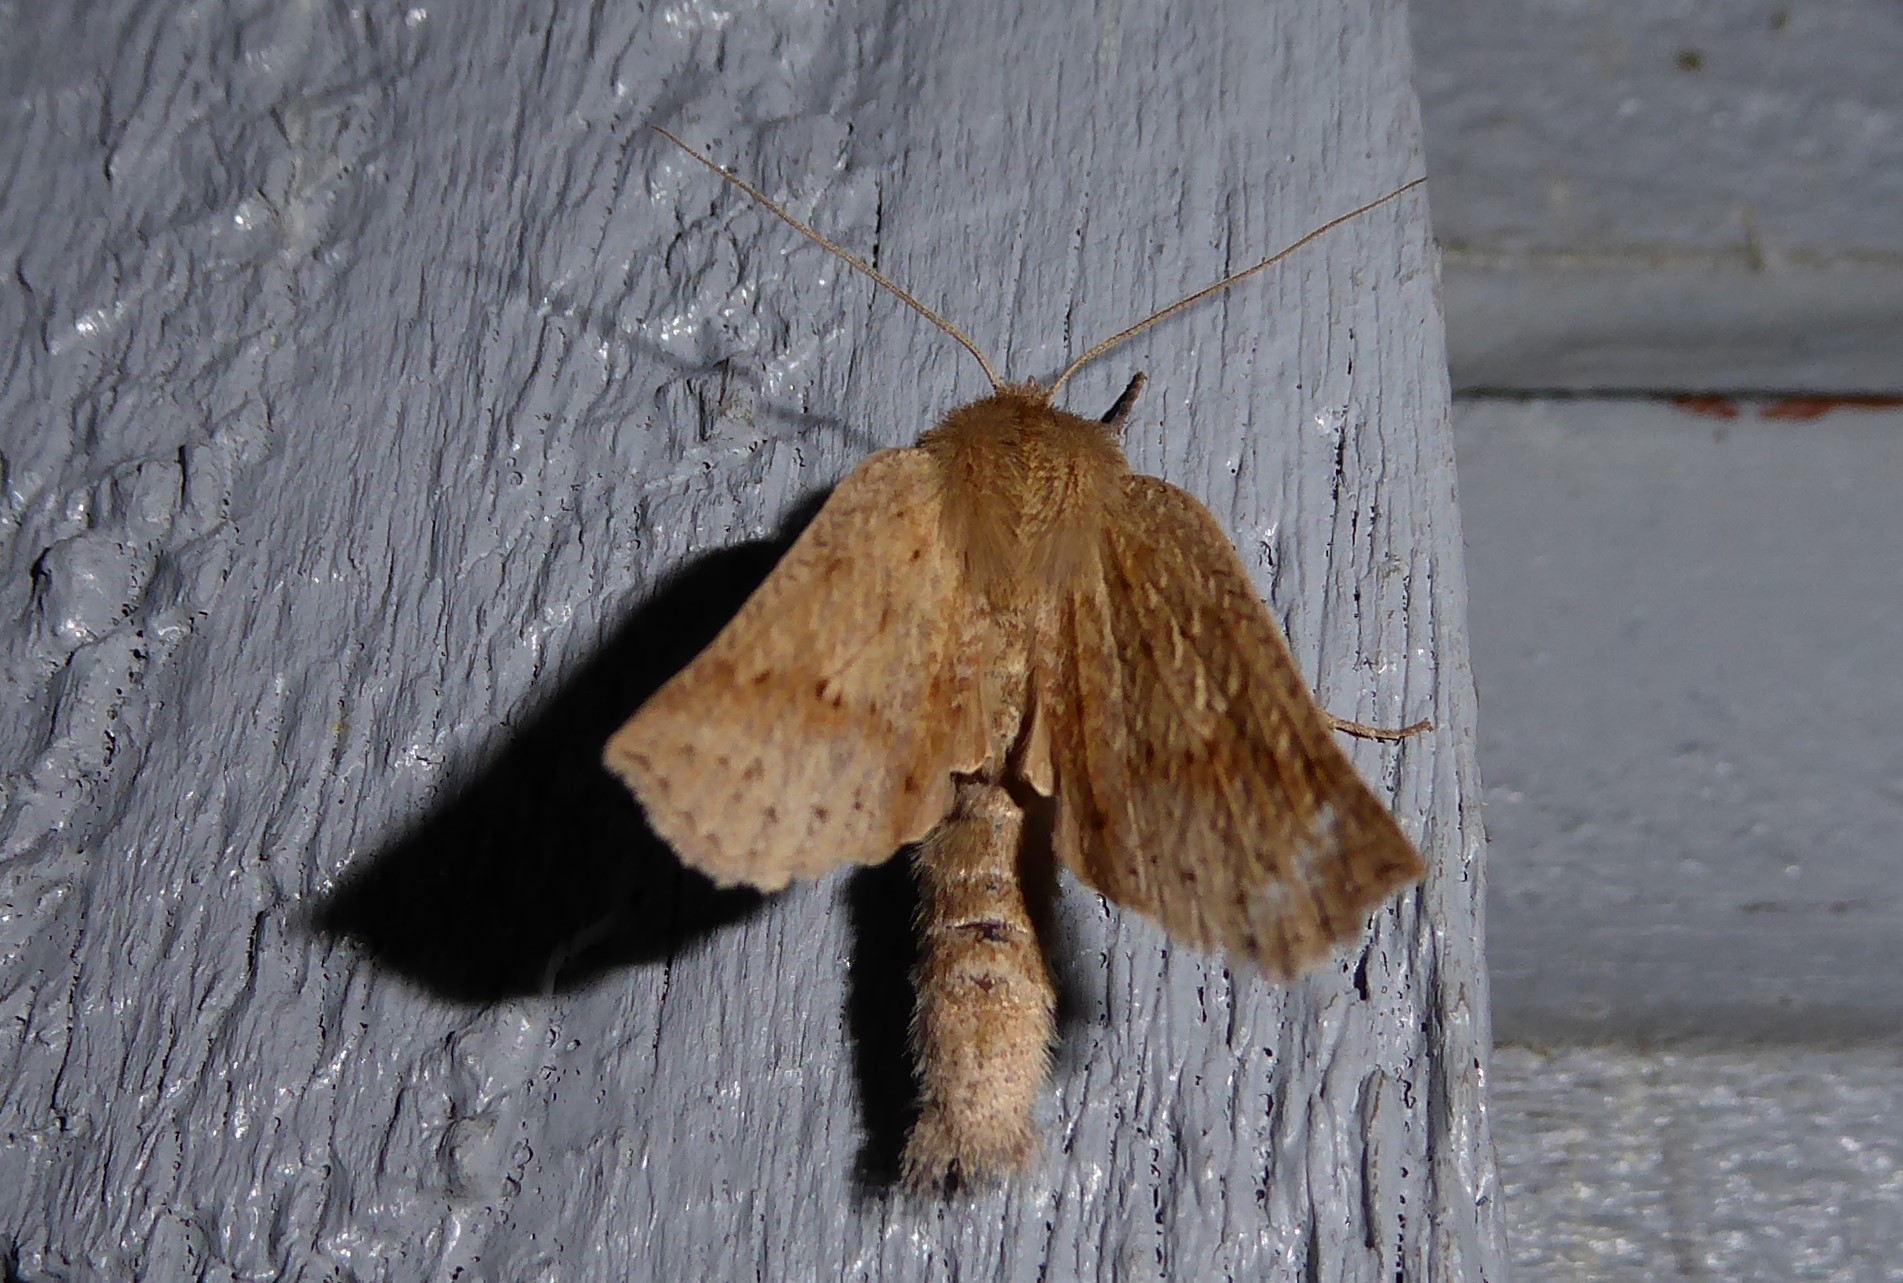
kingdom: Animalia
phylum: Arthropoda
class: Insecta
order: Lepidoptera
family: Geometridae
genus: Declana
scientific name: Declana leptomera
